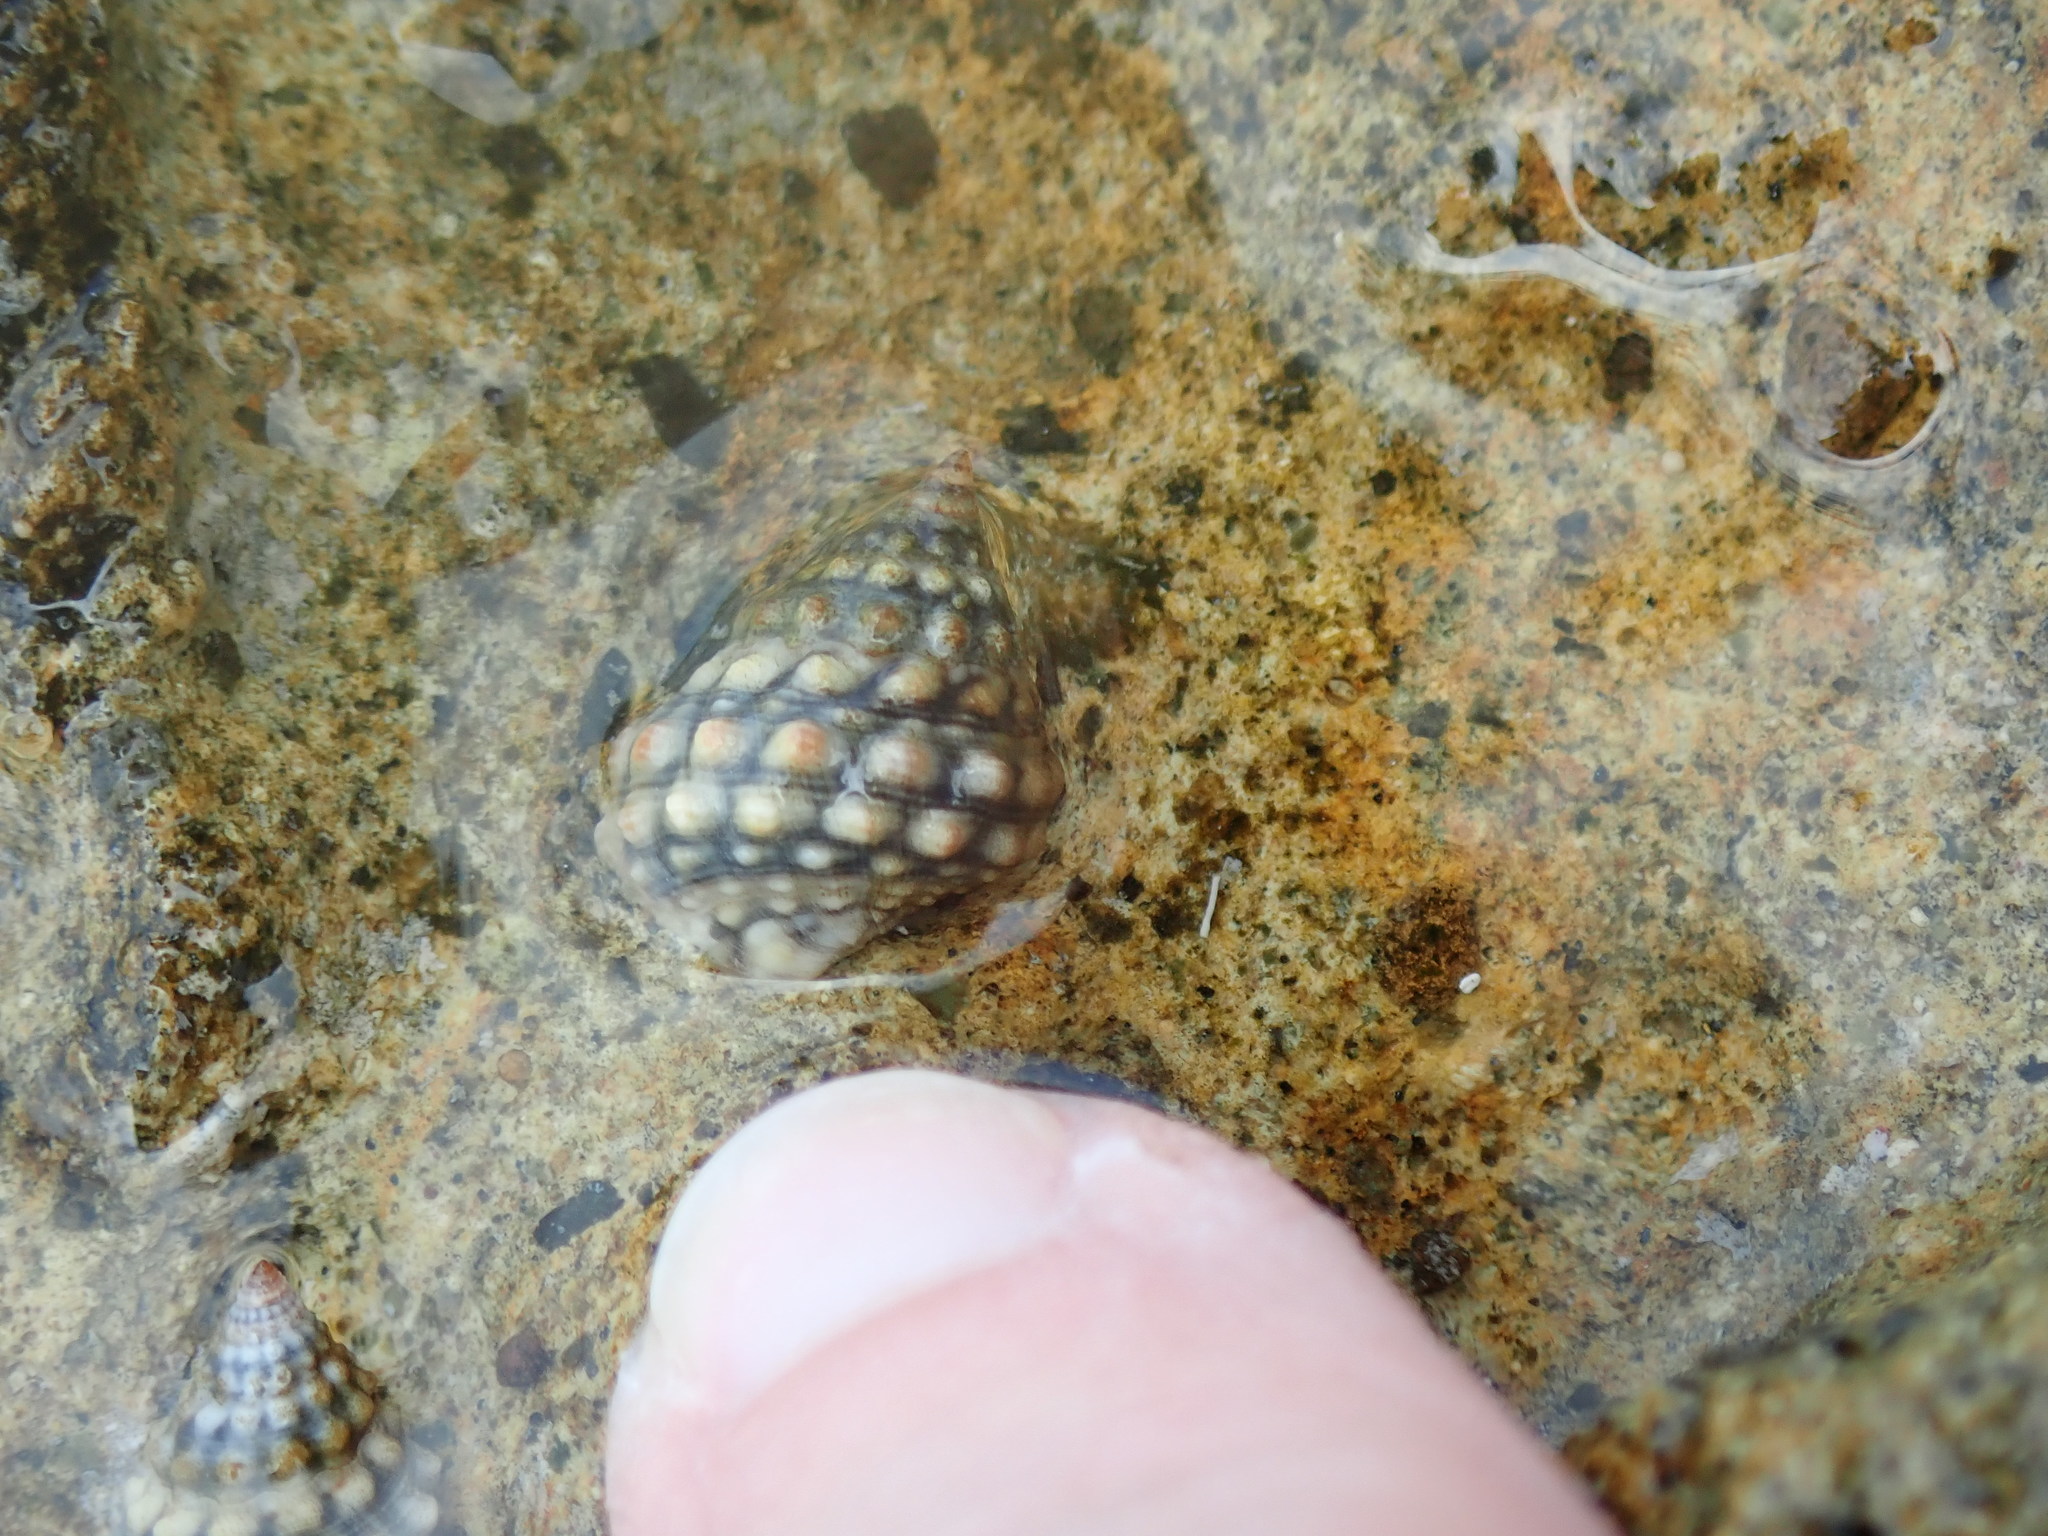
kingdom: Animalia
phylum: Mollusca
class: Gastropoda
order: Littorinimorpha
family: Littorinidae
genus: Echinolittorina
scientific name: Echinolittorina tuberculata
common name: Common periwinkle
